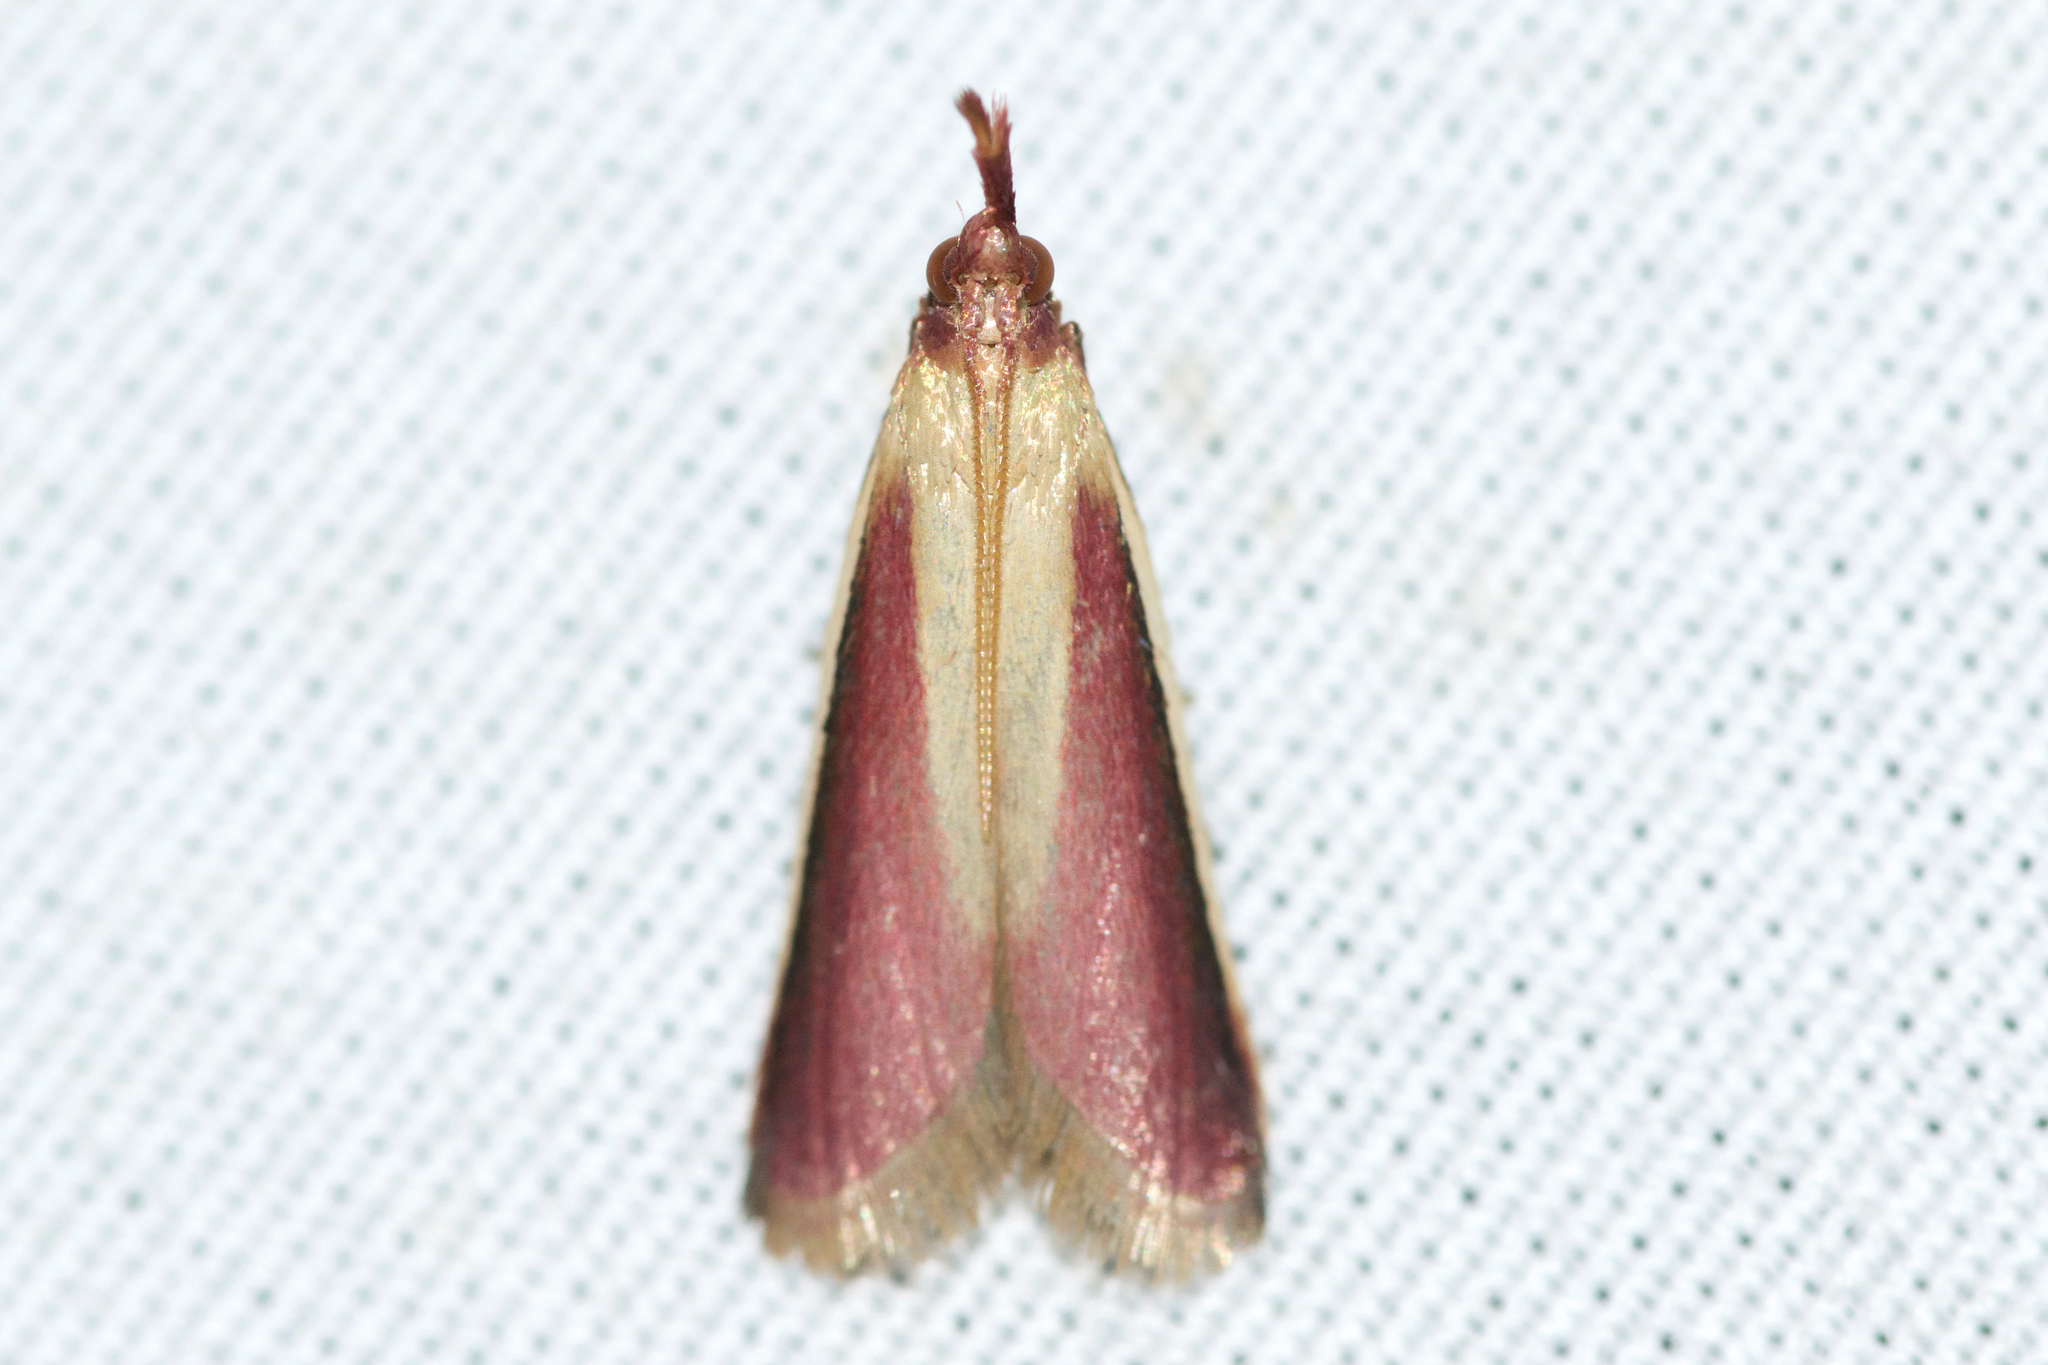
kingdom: Animalia
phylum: Arthropoda
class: Insecta
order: Lepidoptera
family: Pyralidae
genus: Peoria
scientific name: Peoria approximella
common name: Carmine snout
